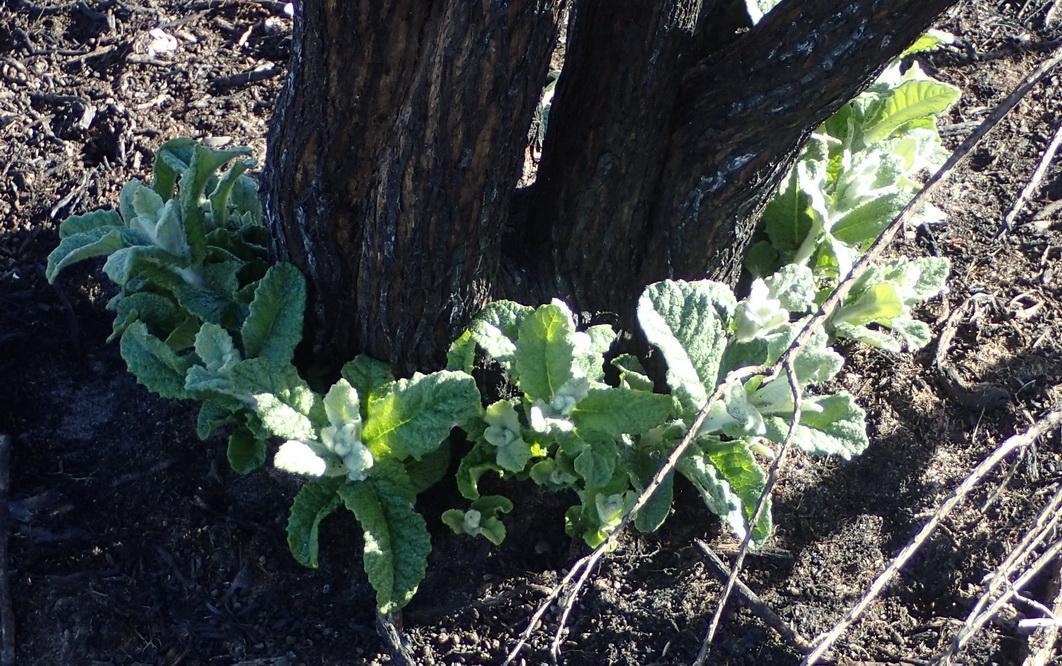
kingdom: Plantae
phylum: Tracheophyta
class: Magnoliopsida
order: Asterales
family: Asteraceae
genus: Tarchonanthus
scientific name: Tarchonanthus littoralis
